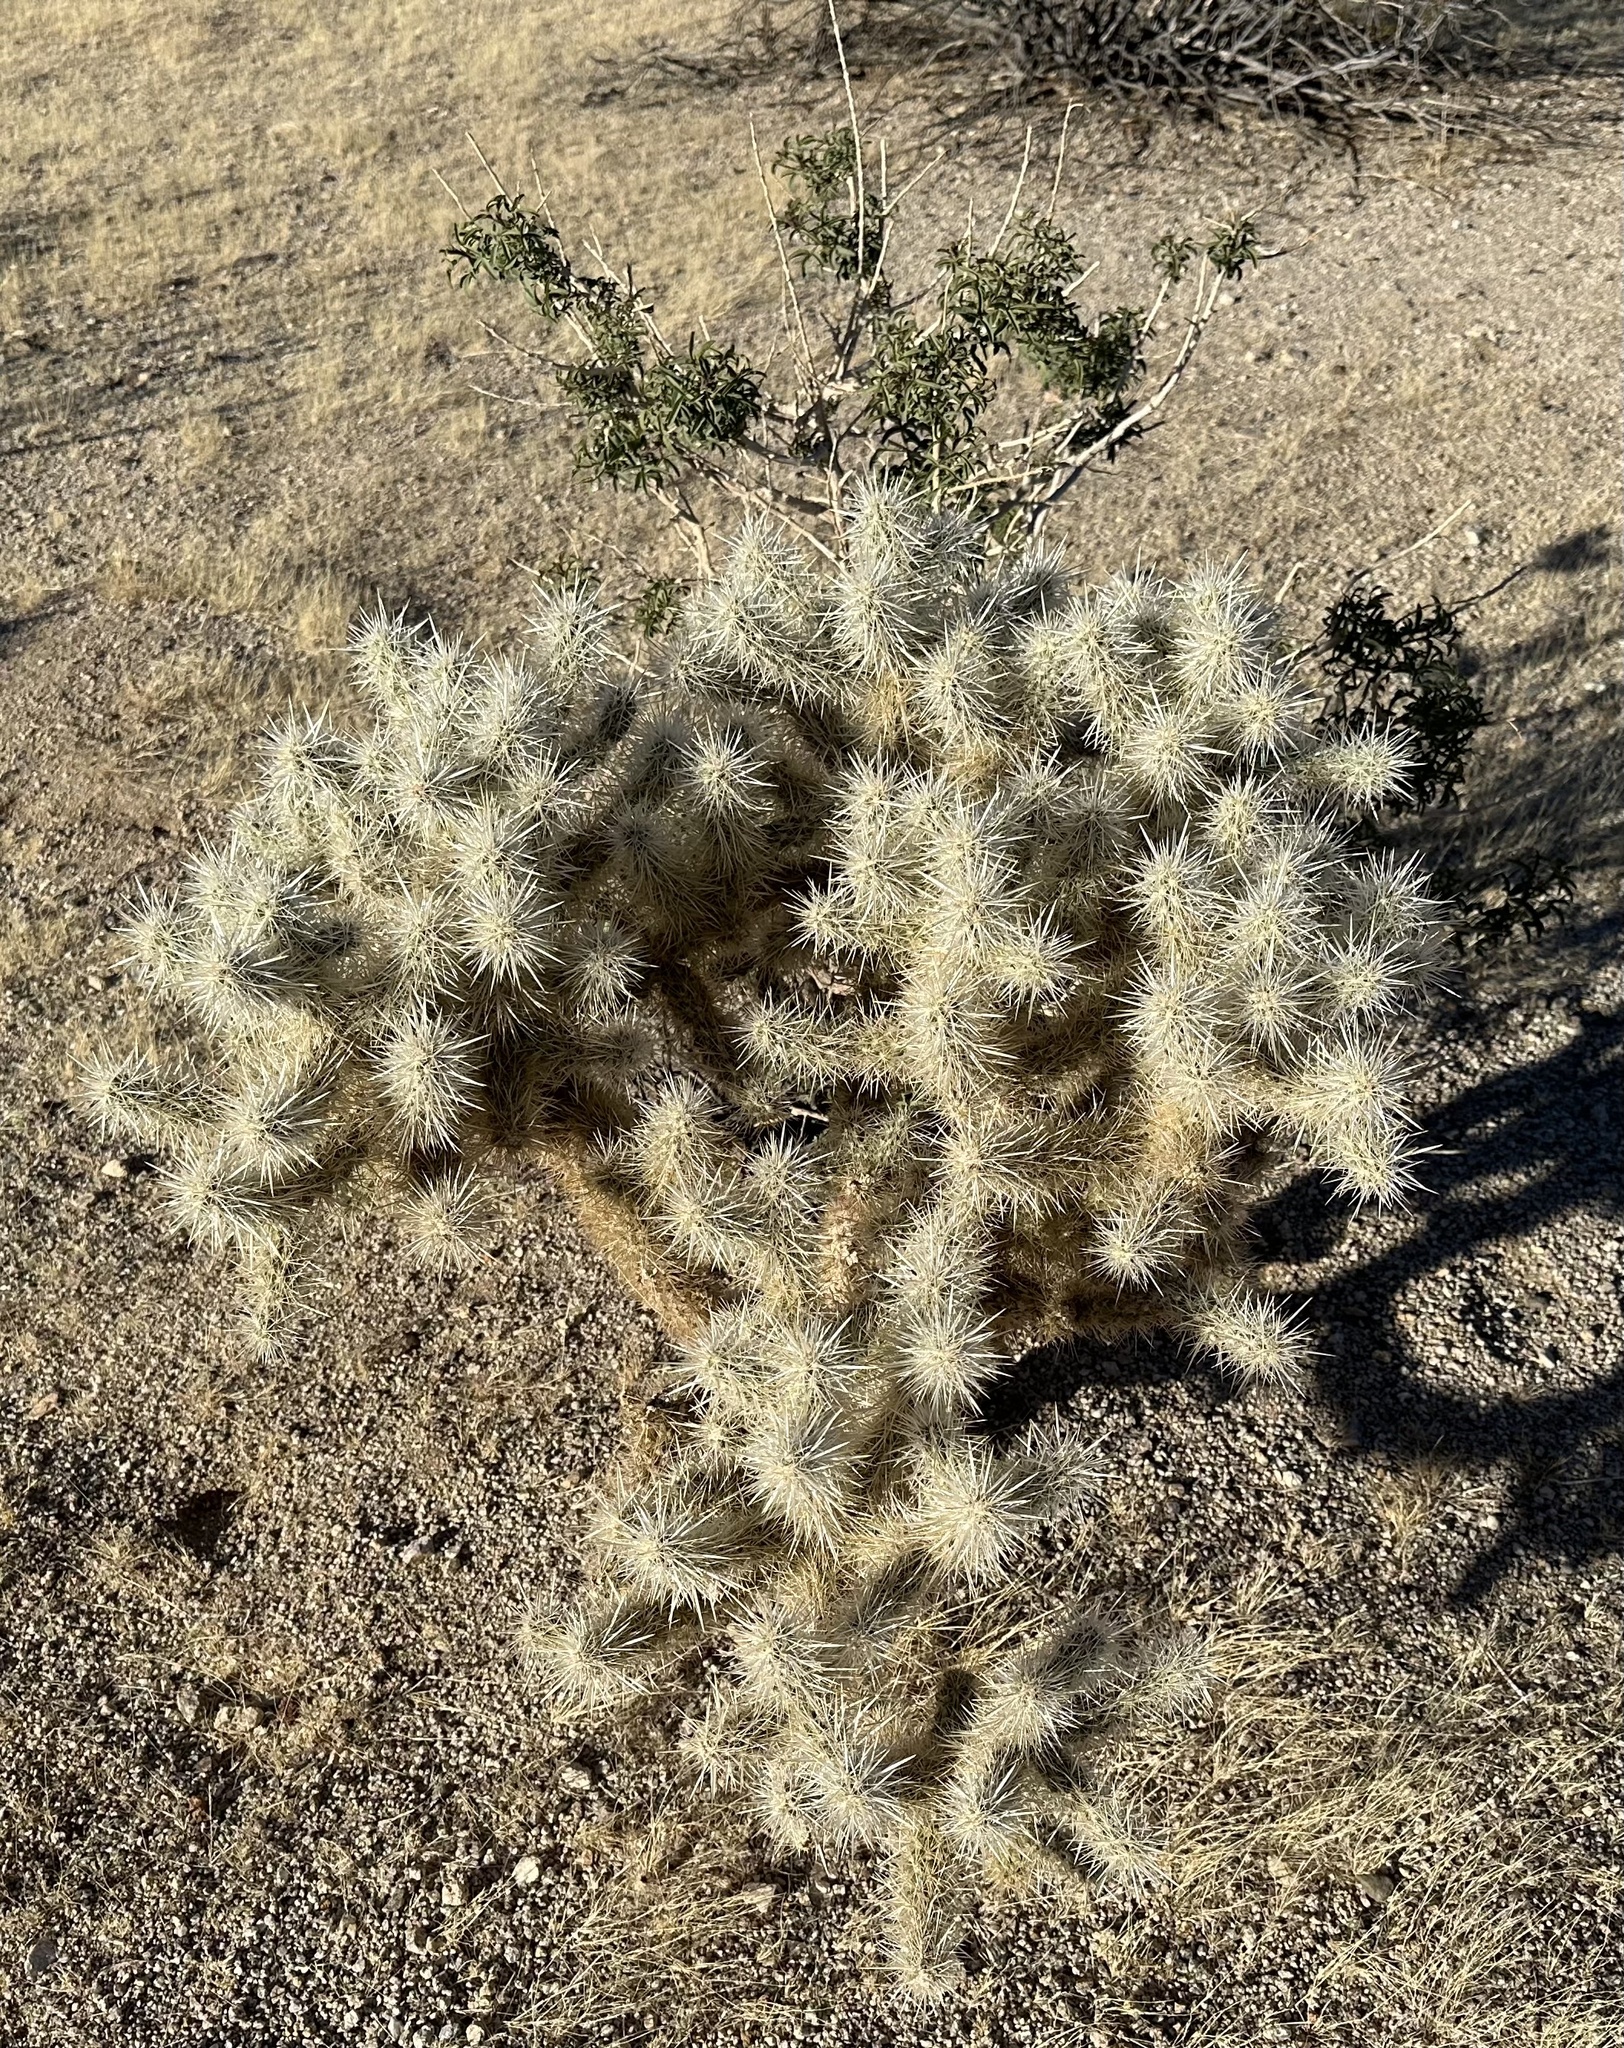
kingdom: Plantae
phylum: Tracheophyta
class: Magnoliopsida
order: Caryophyllales
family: Cactaceae
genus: Cylindropuntia
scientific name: Cylindropuntia echinocarpa
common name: Ground cholla
